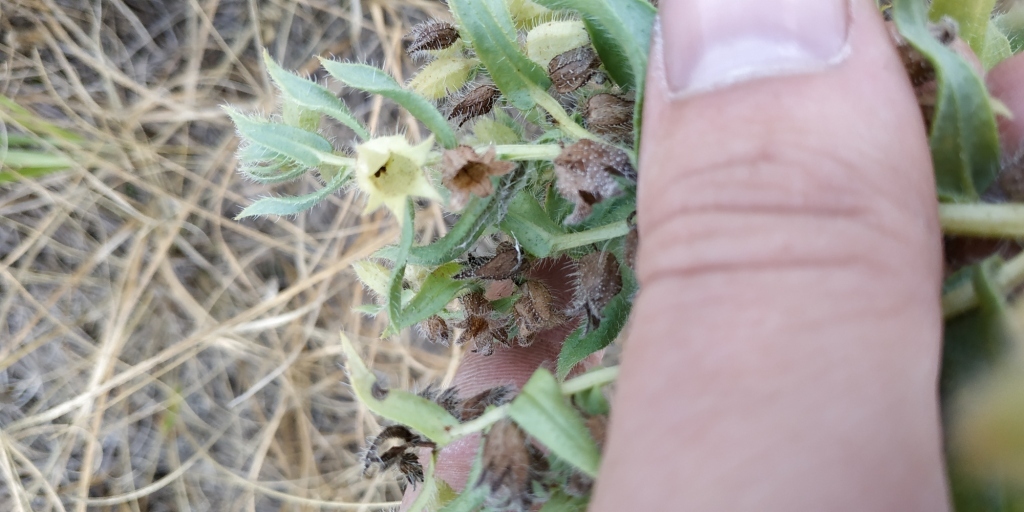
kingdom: Plantae
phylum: Tracheophyta
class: Magnoliopsida
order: Boraginales
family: Boraginaceae
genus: Nonea
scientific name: Nonea pulla
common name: Brown nonea
